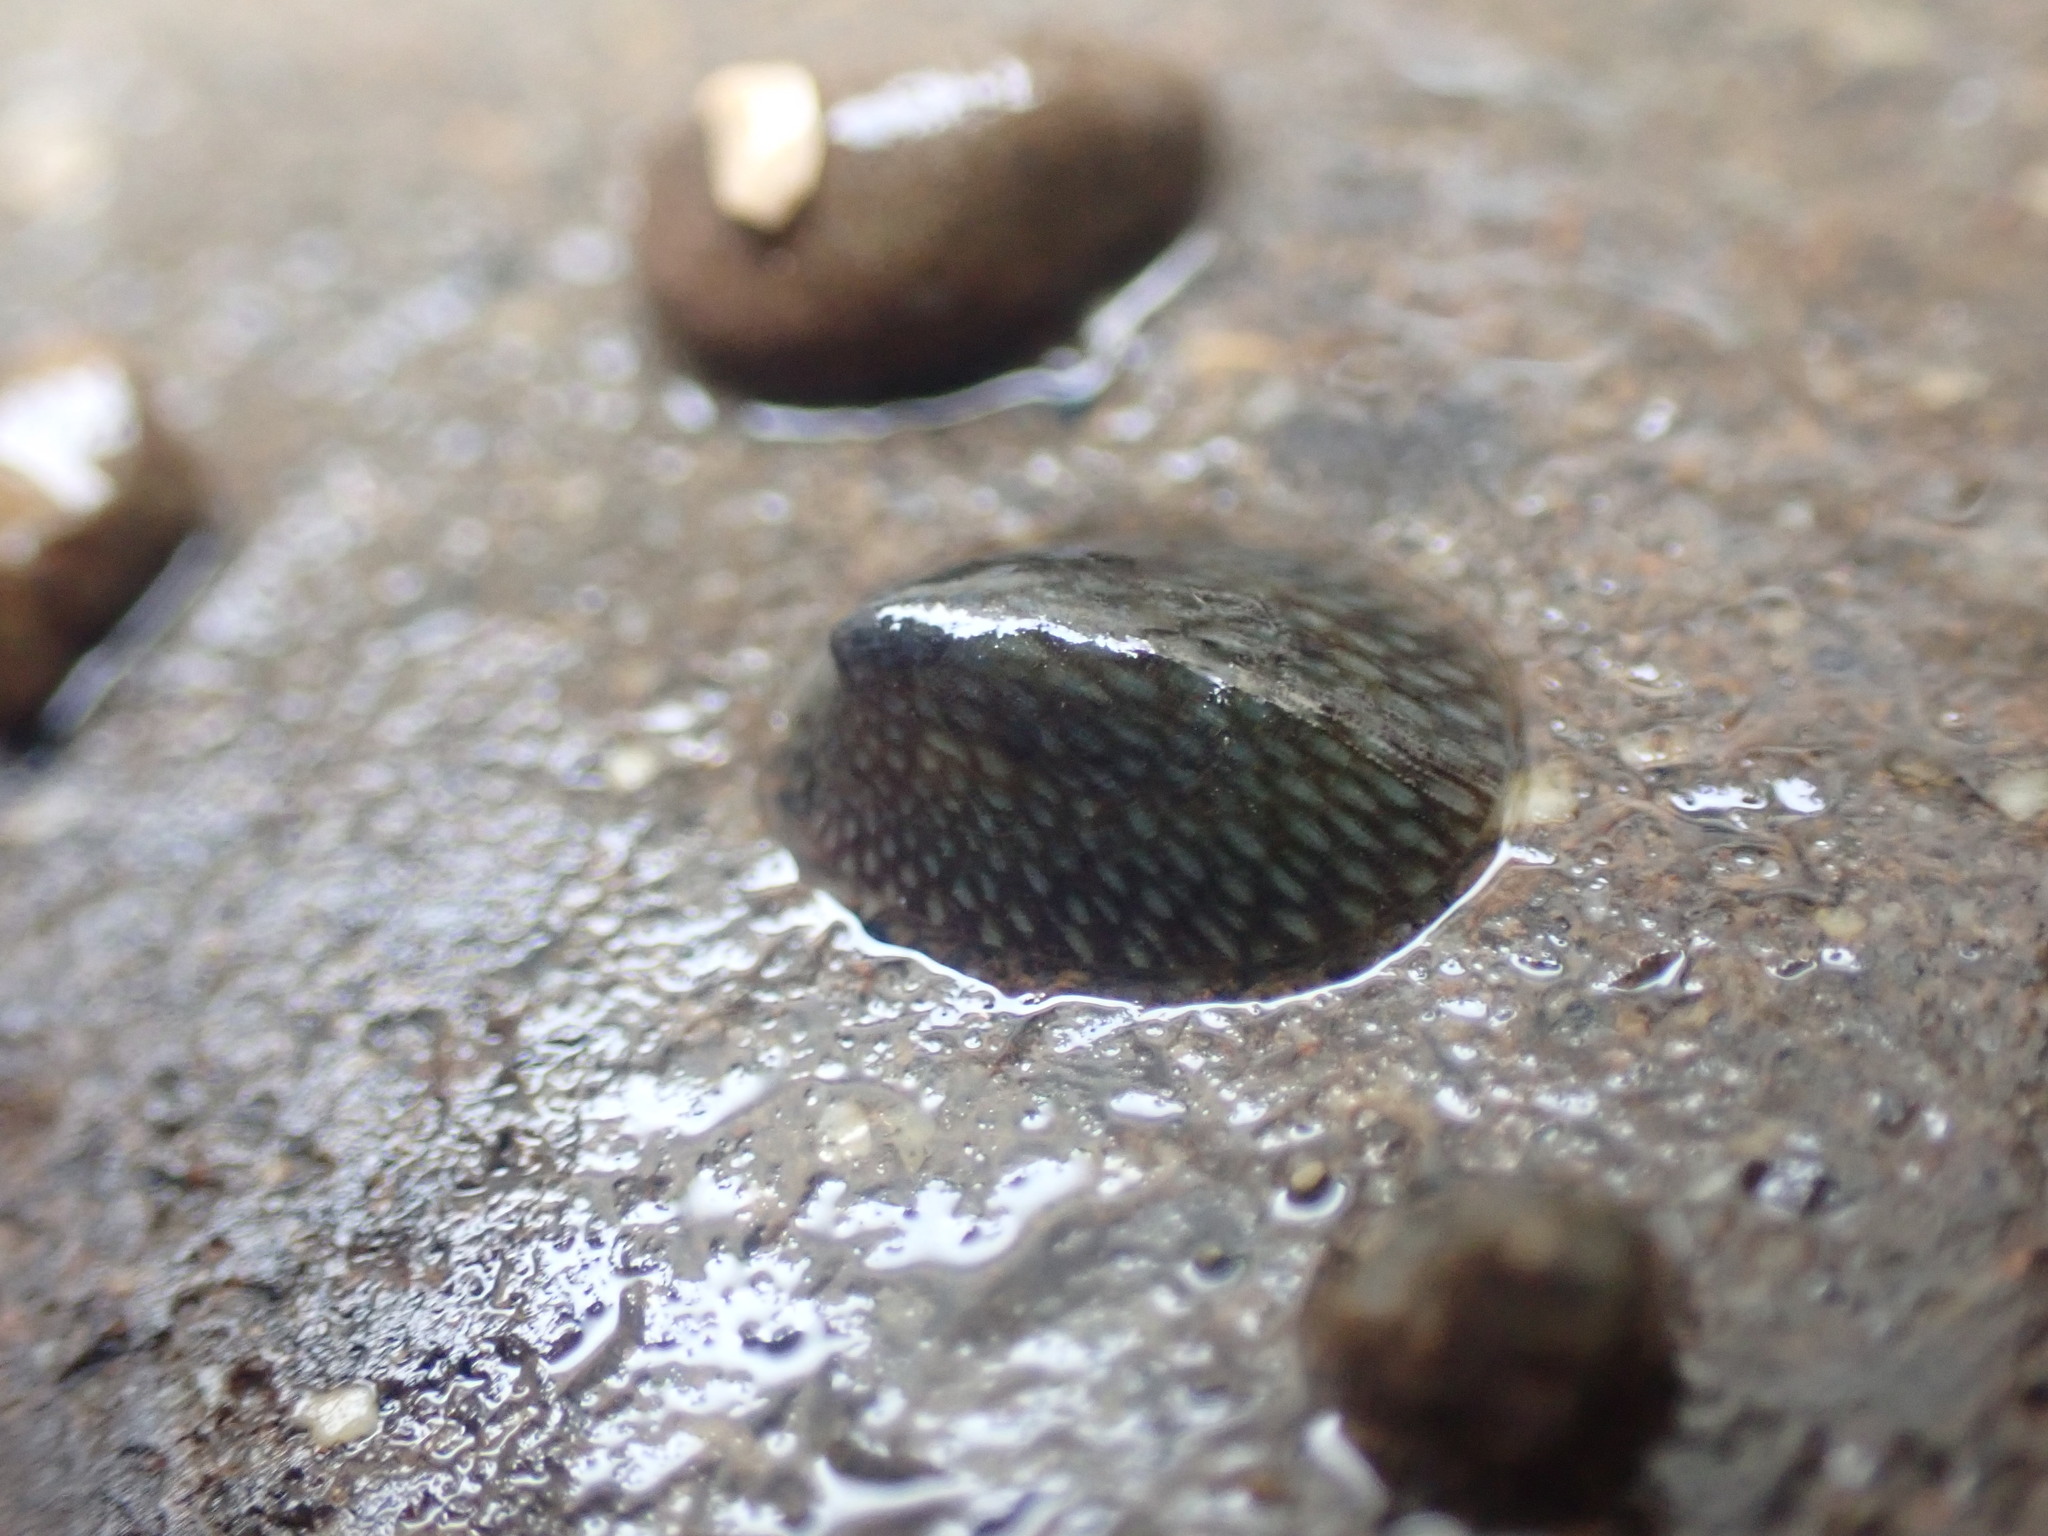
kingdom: Animalia
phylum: Mollusca
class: Gastropoda
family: Lottiidae
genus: Notoacmea
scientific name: Notoacmea elongata
